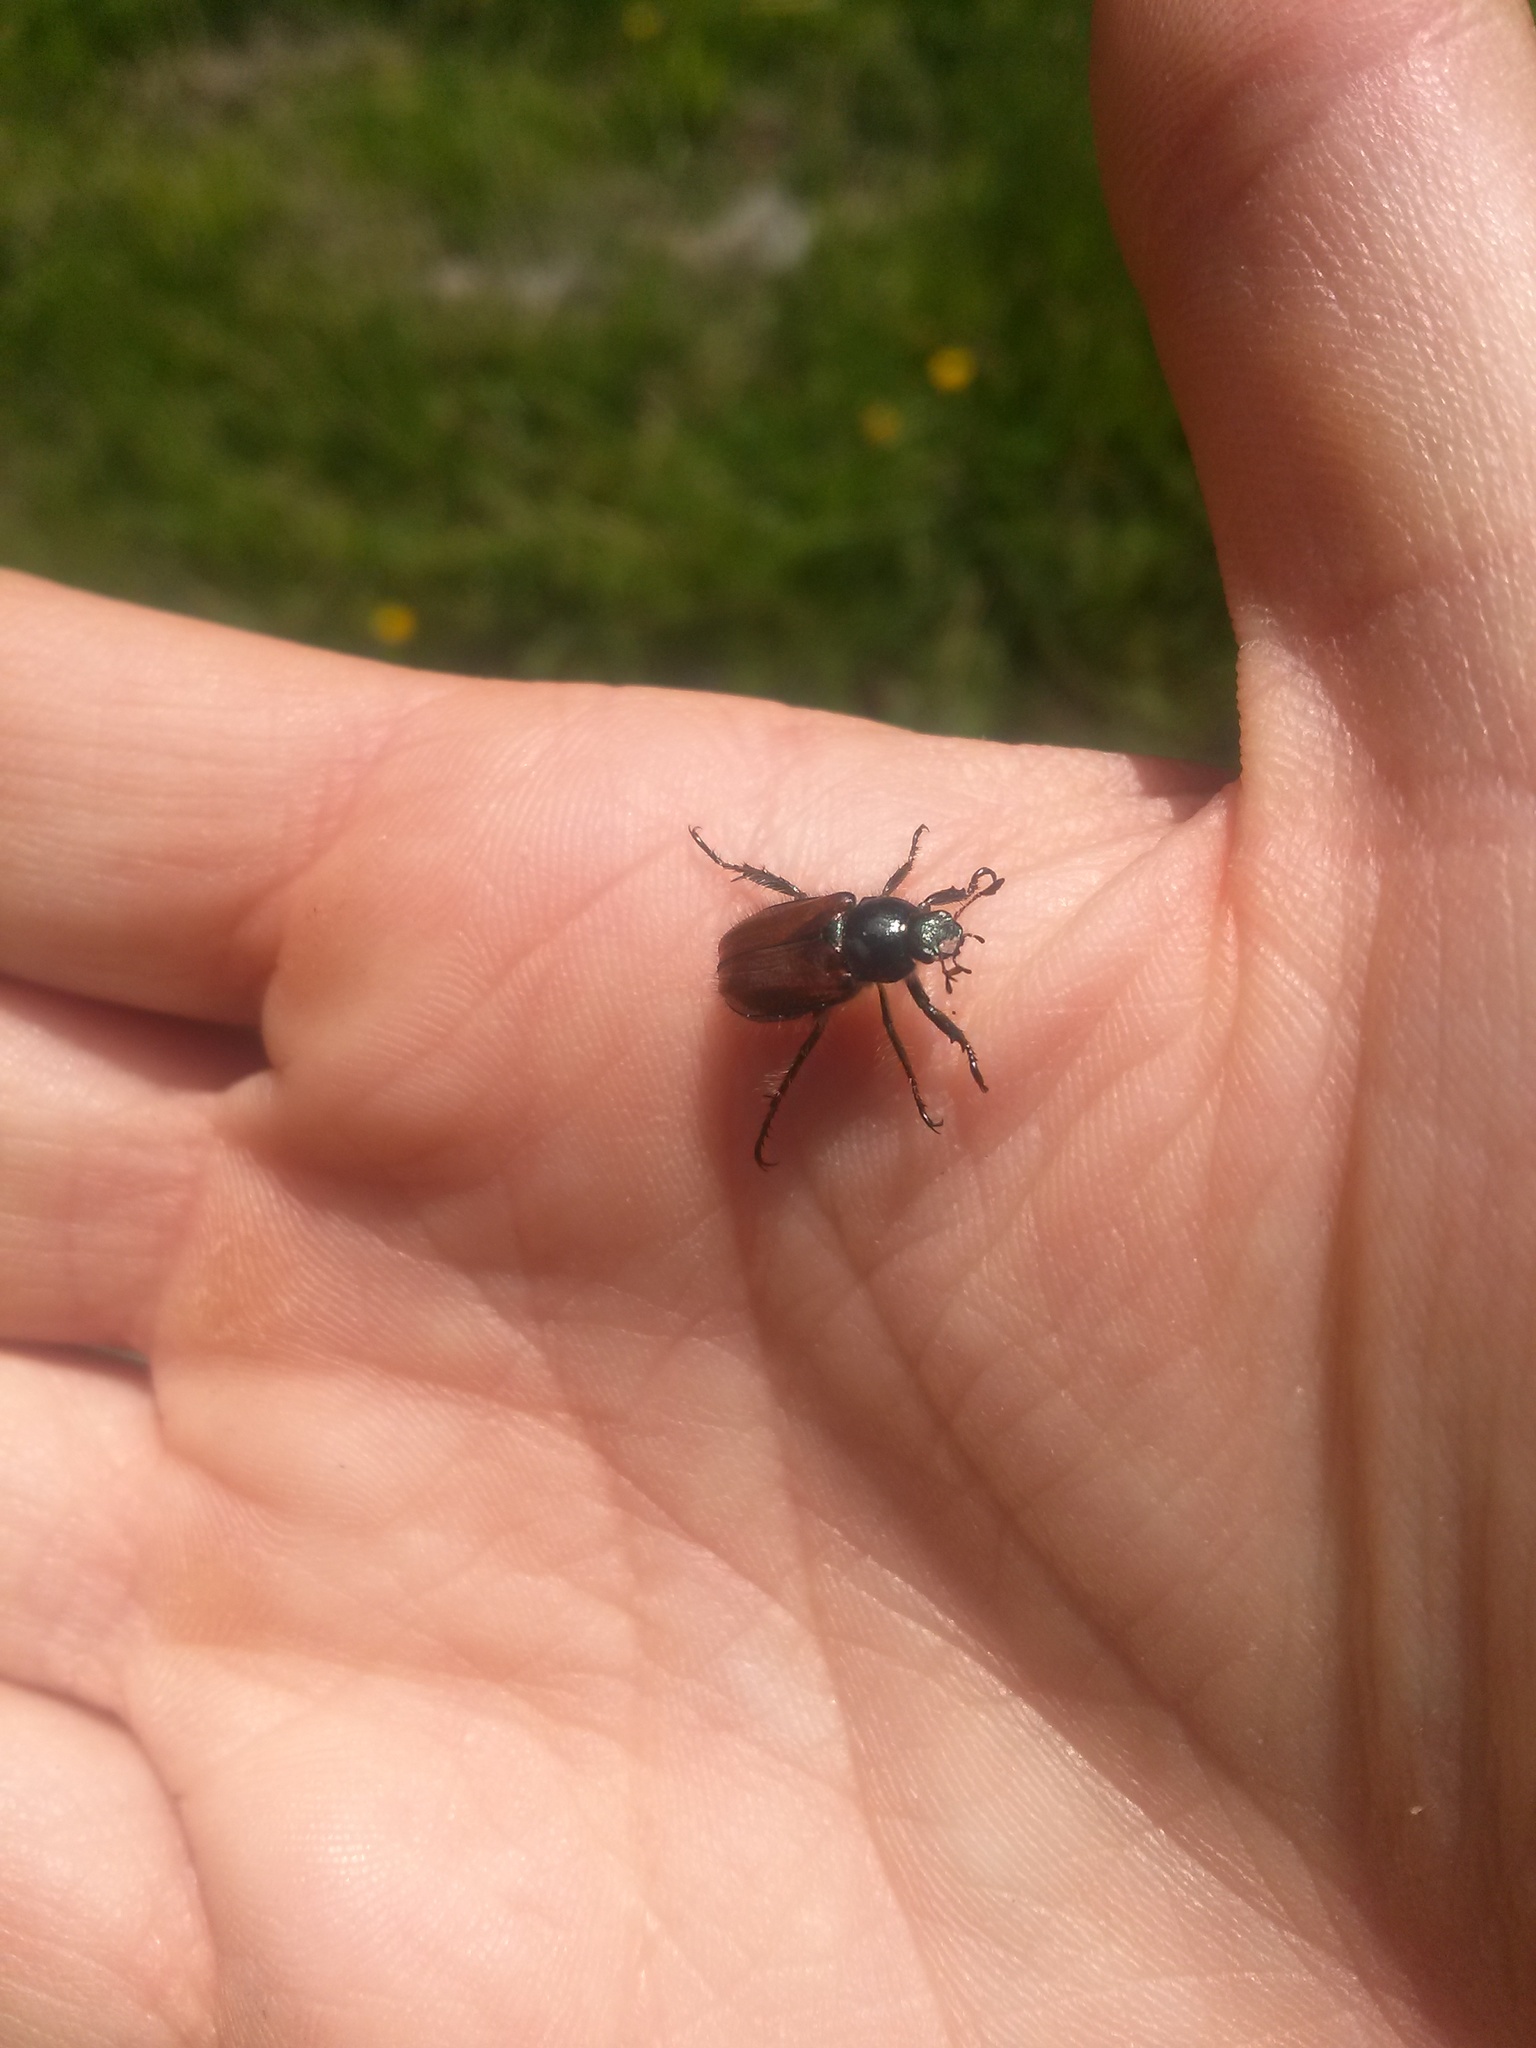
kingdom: Animalia
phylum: Arthropoda
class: Insecta
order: Coleoptera
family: Scarabaeidae
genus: Phyllopertha
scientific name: Phyllopertha horticola
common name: Garden chafer
